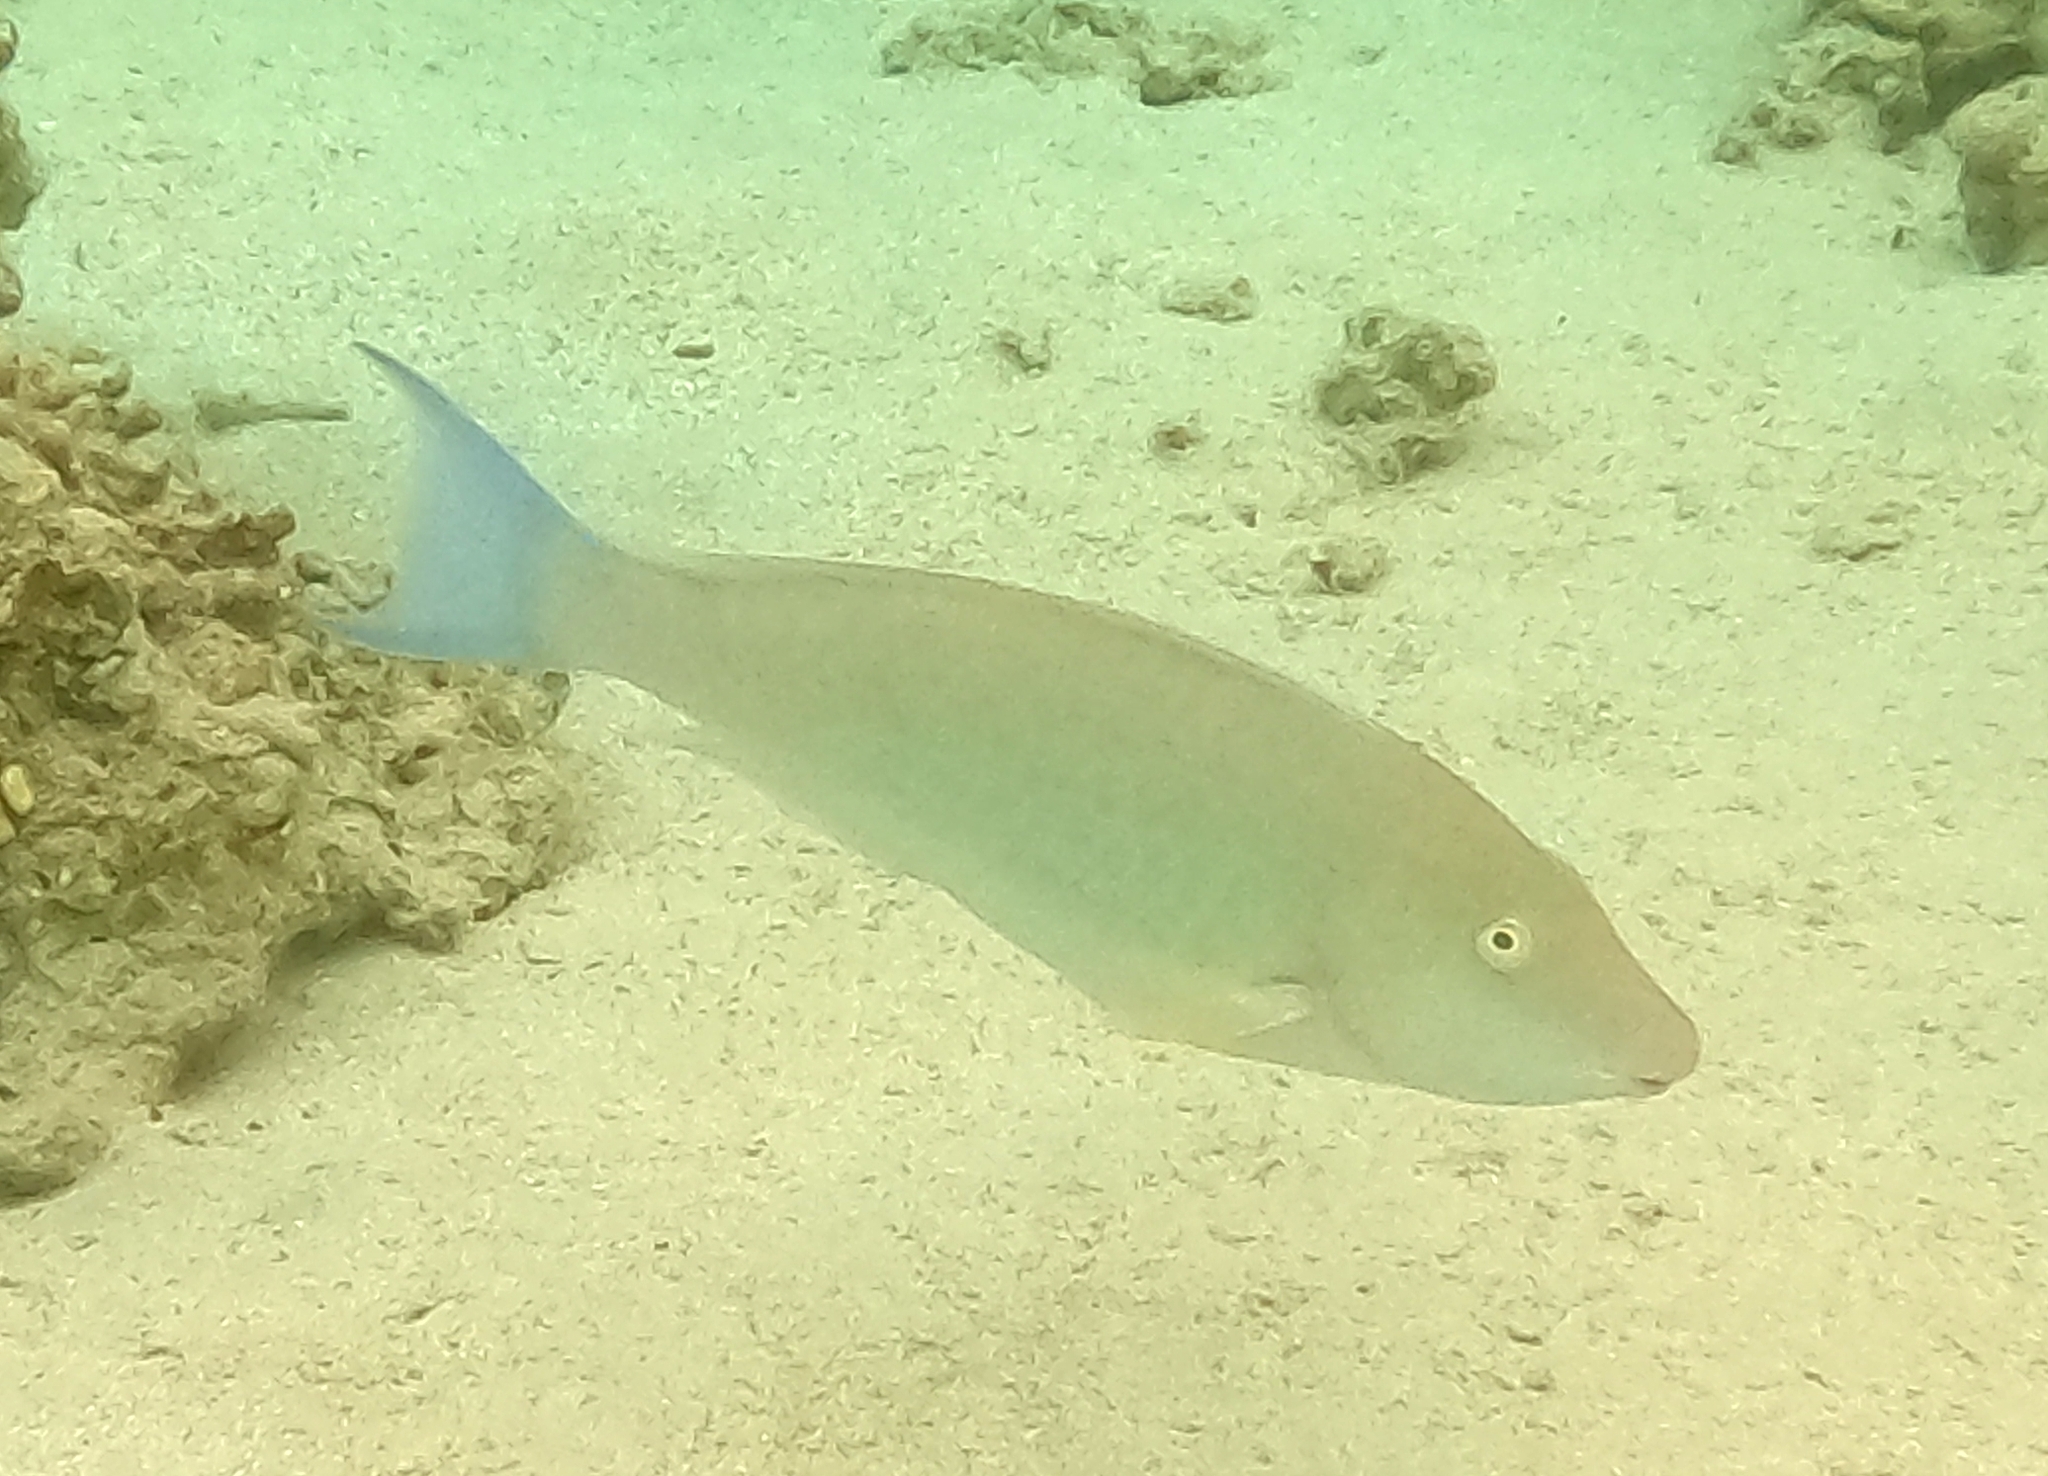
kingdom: Animalia
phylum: Chordata
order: Perciformes
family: Scaridae
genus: Hipposcarus
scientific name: Hipposcarus harid
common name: Candelamoa parrotfish
